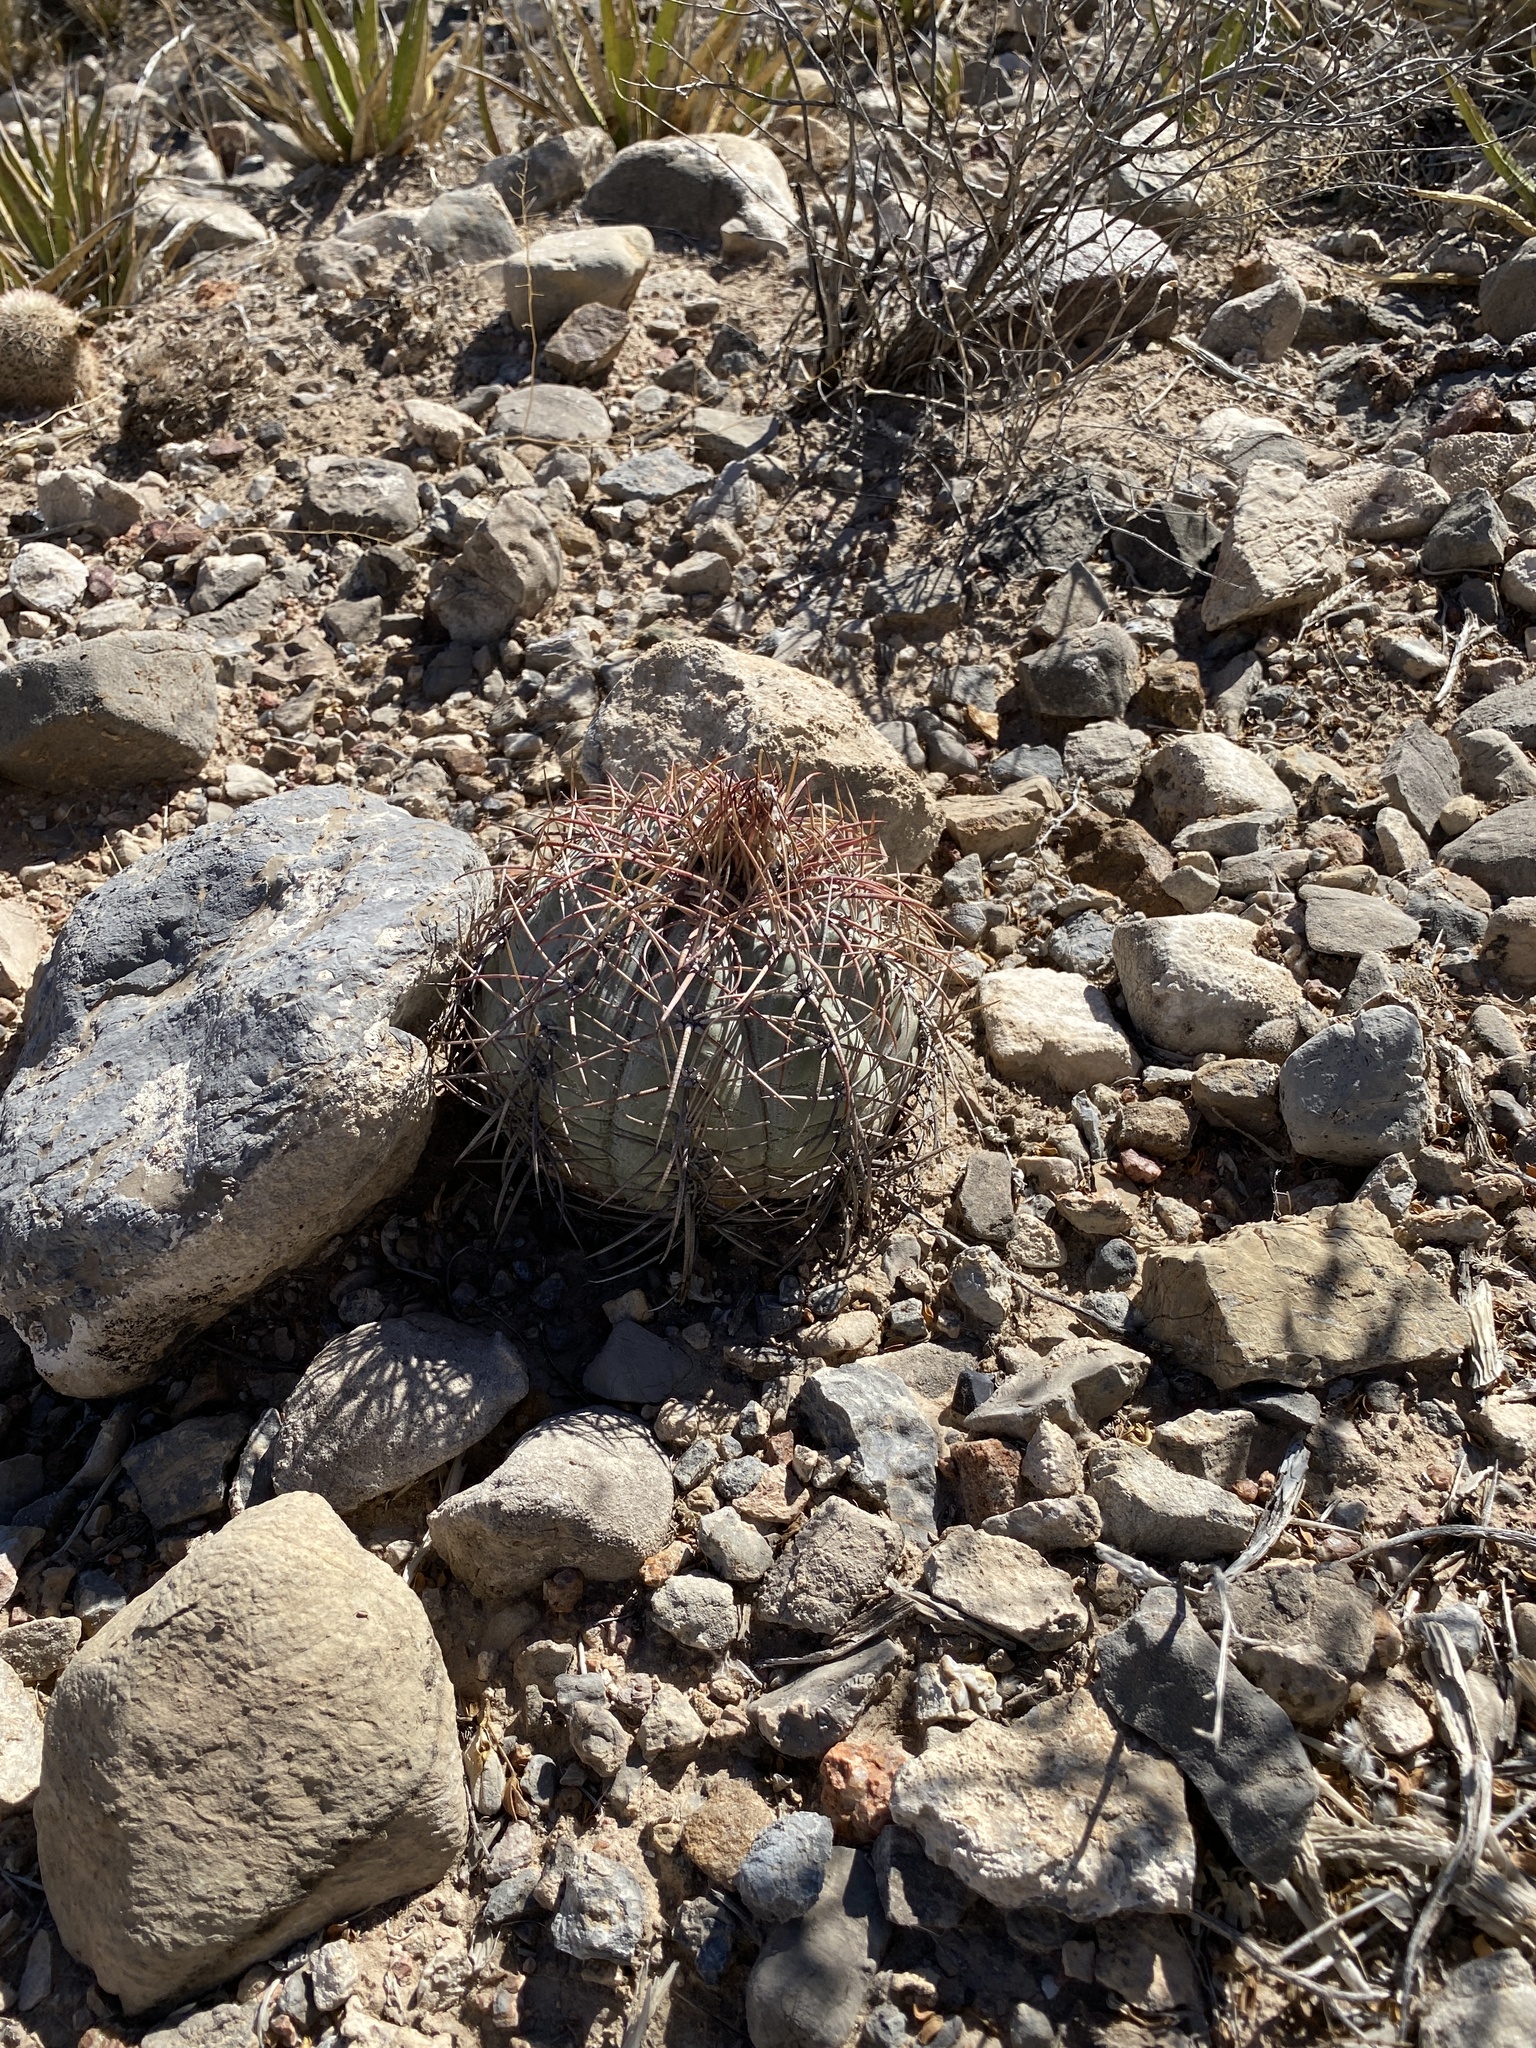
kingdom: Plantae
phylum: Tracheophyta
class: Magnoliopsida
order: Caryophyllales
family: Cactaceae
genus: Echinocactus
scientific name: Echinocactus horizonthalonius
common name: Devilshead
